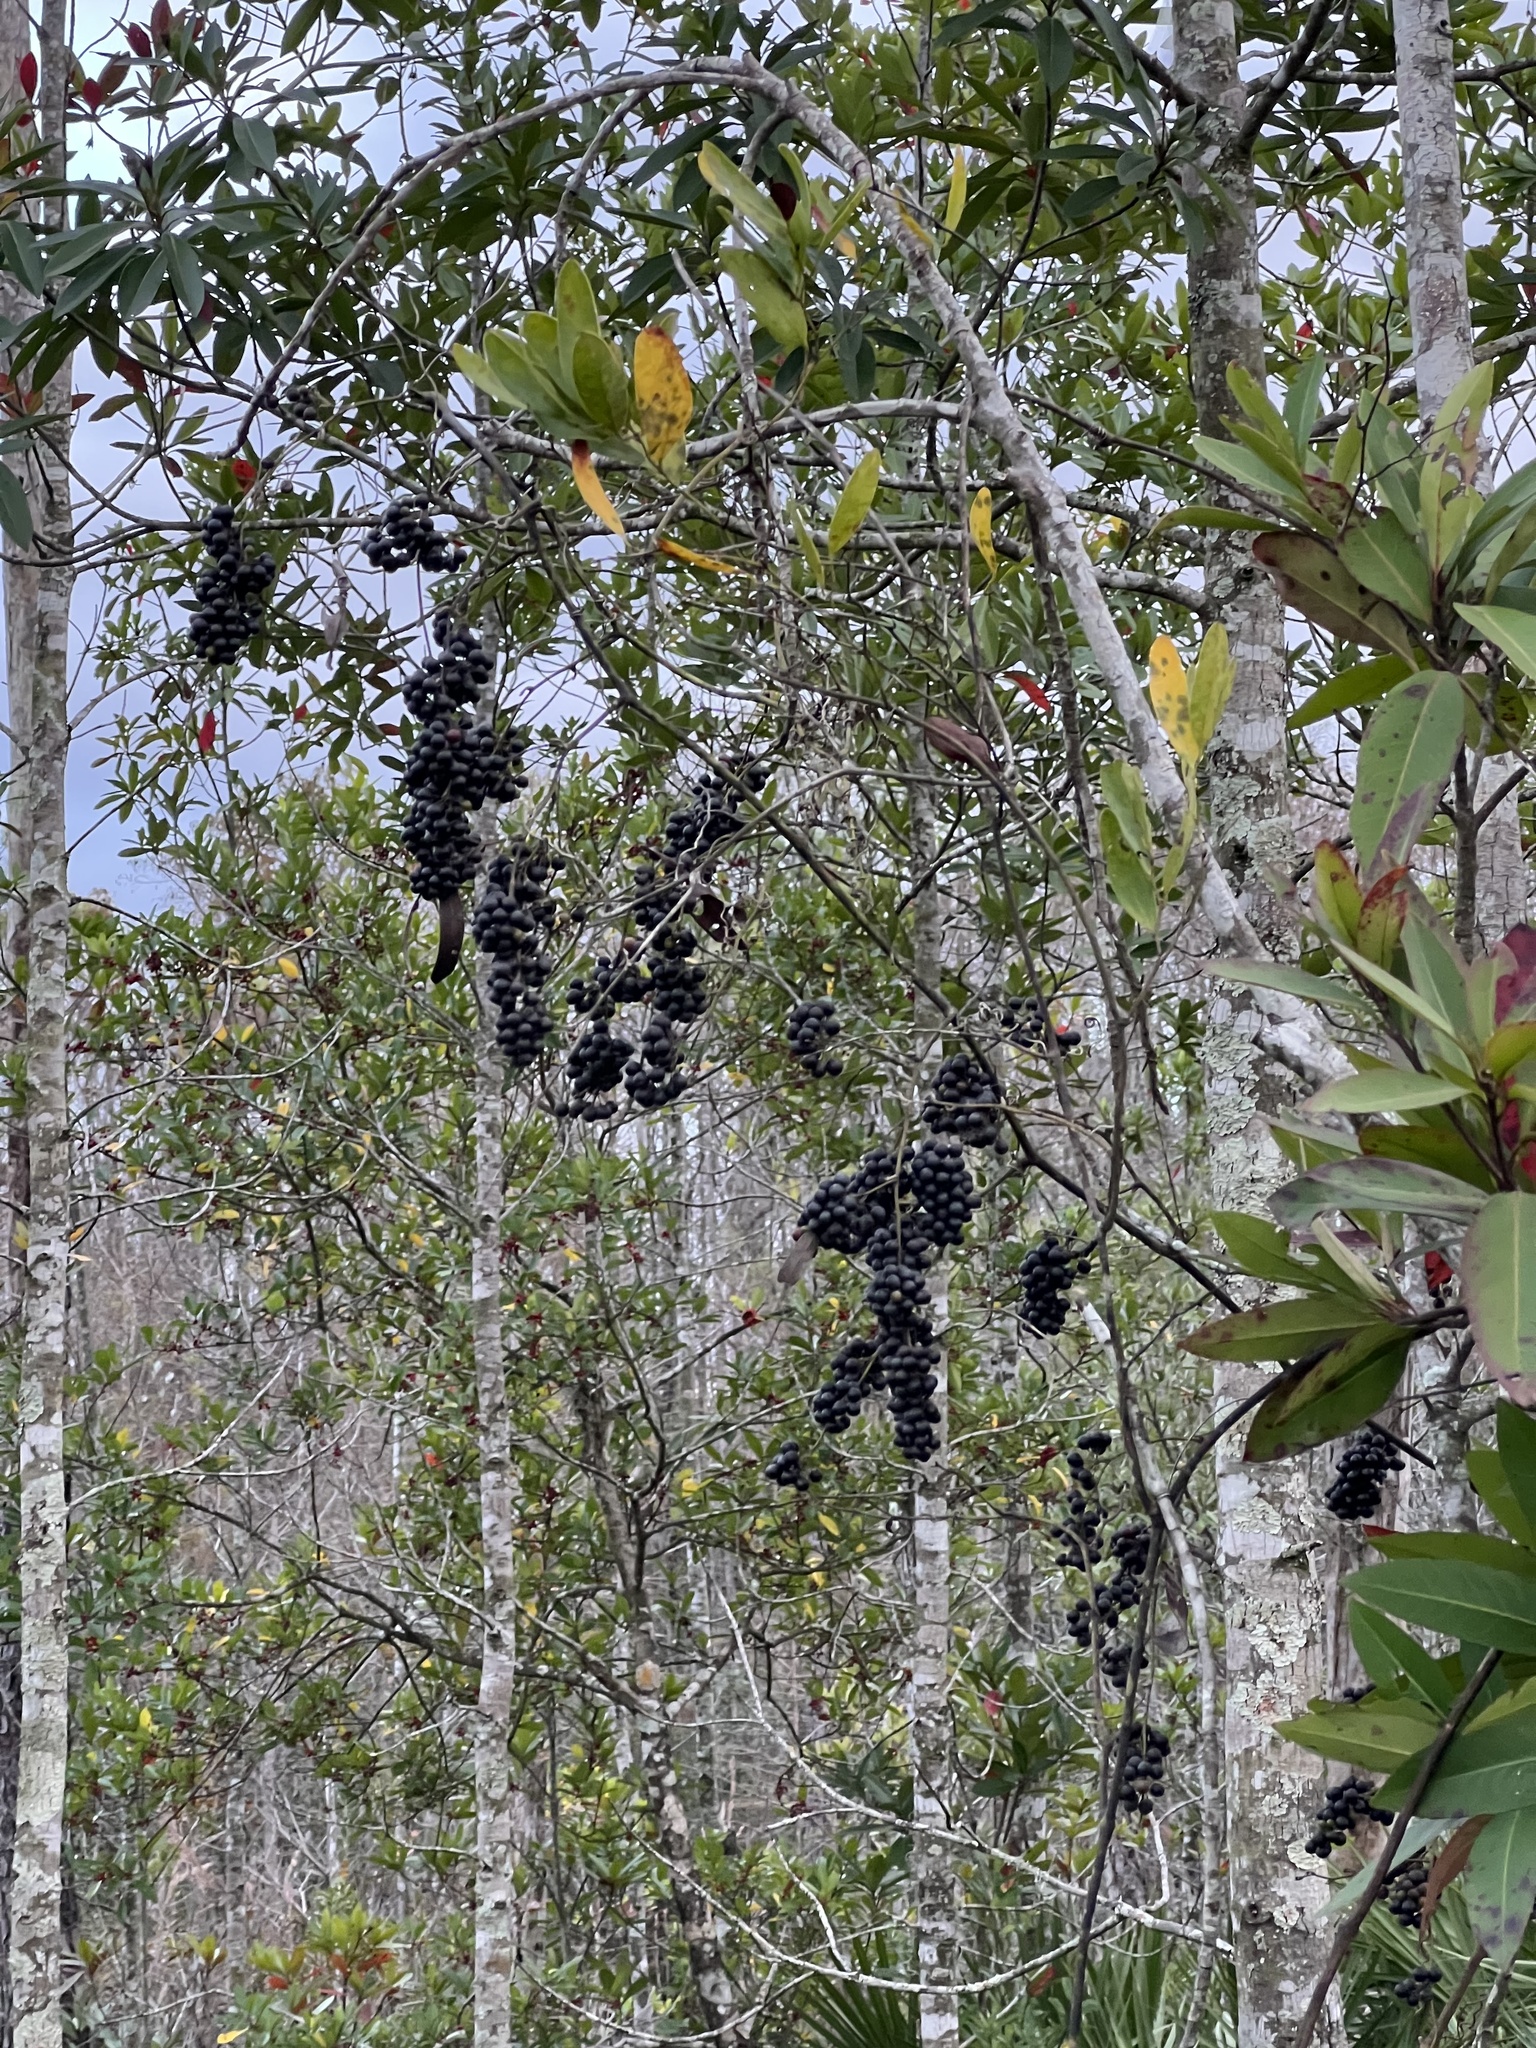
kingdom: Plantae
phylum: Tracheophyta
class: Liliopsida
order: Liliales
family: Smilacaceae
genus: Smilax
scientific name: Smilax laurifolia
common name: Bamboovine
